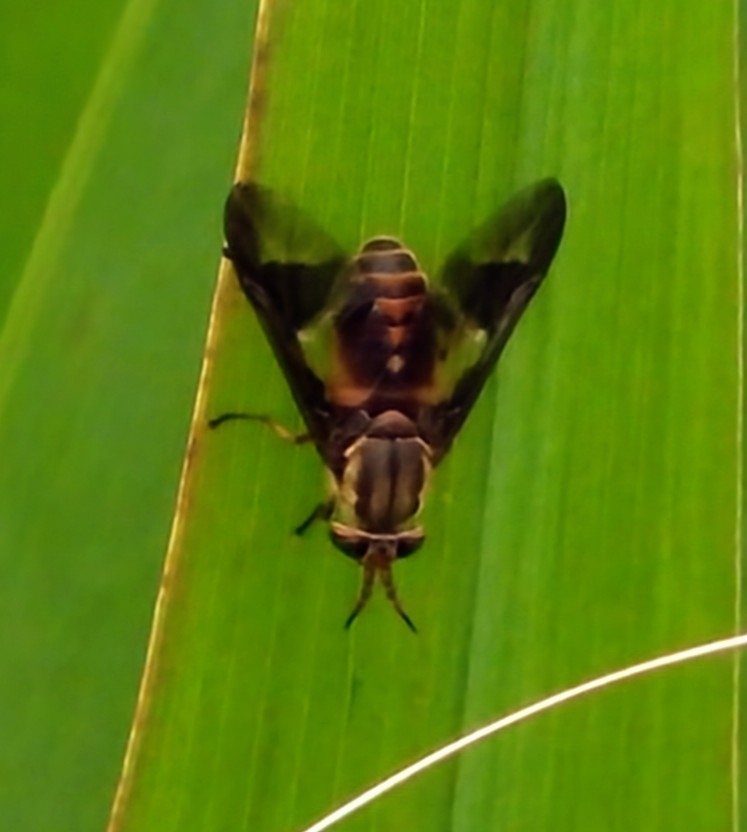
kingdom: Animalia
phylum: Arthropoda
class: Insecta
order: Diptera
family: Tabanidae
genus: Chrysops
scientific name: Chrysops atlanticus
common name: Atlantic deer fly
